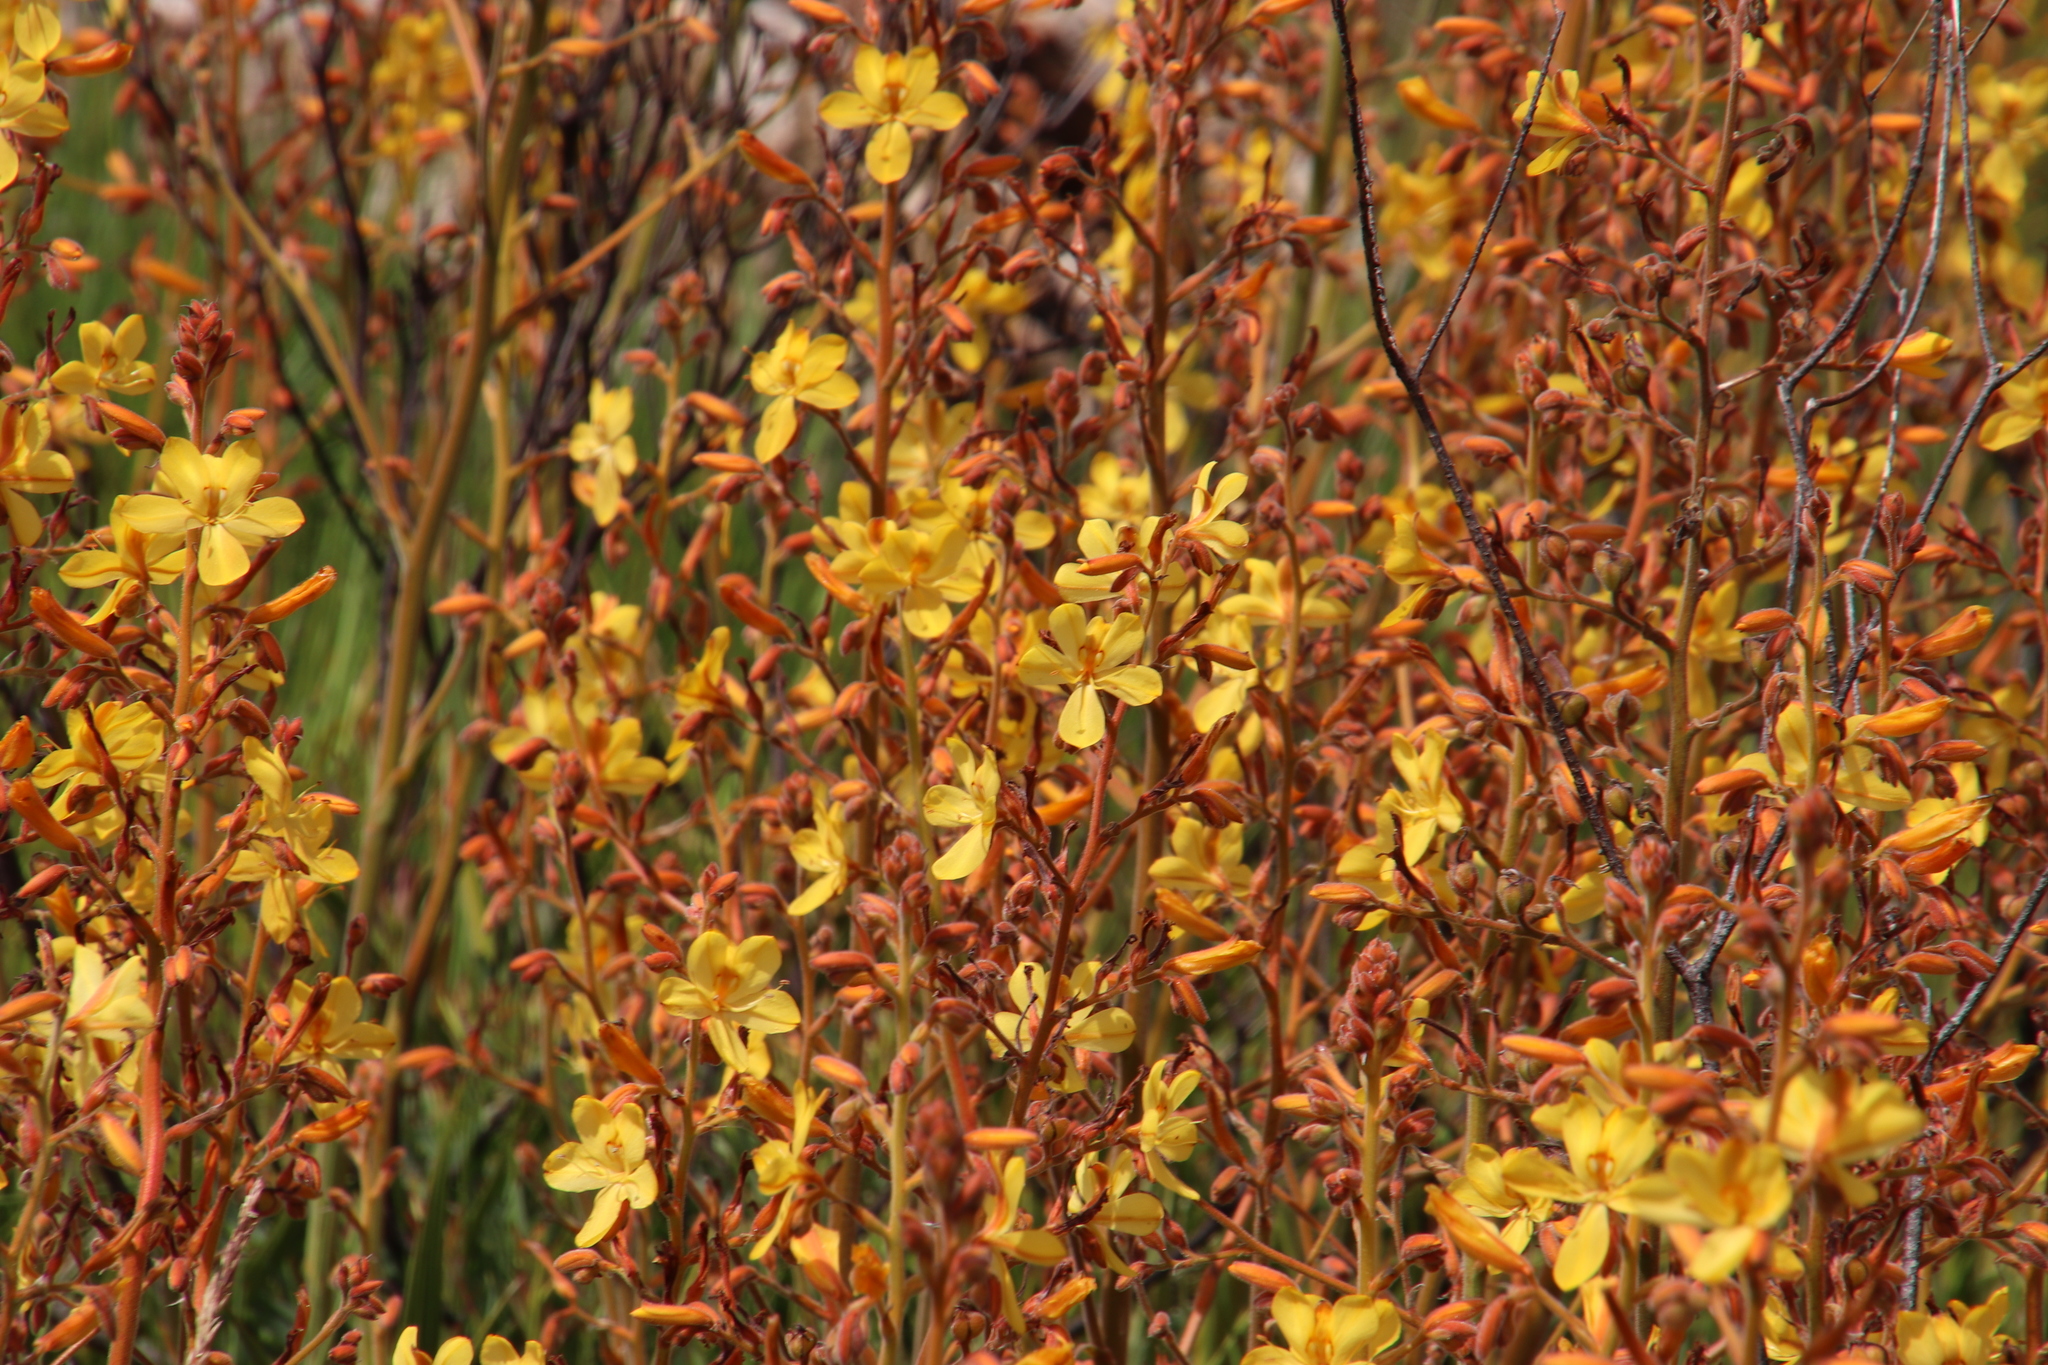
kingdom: Plantae
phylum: Tracheophyta
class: Liliopsida
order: Commelinales
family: Haemodoraceae
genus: Wachendorfia
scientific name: Wachendorfia paniculata
